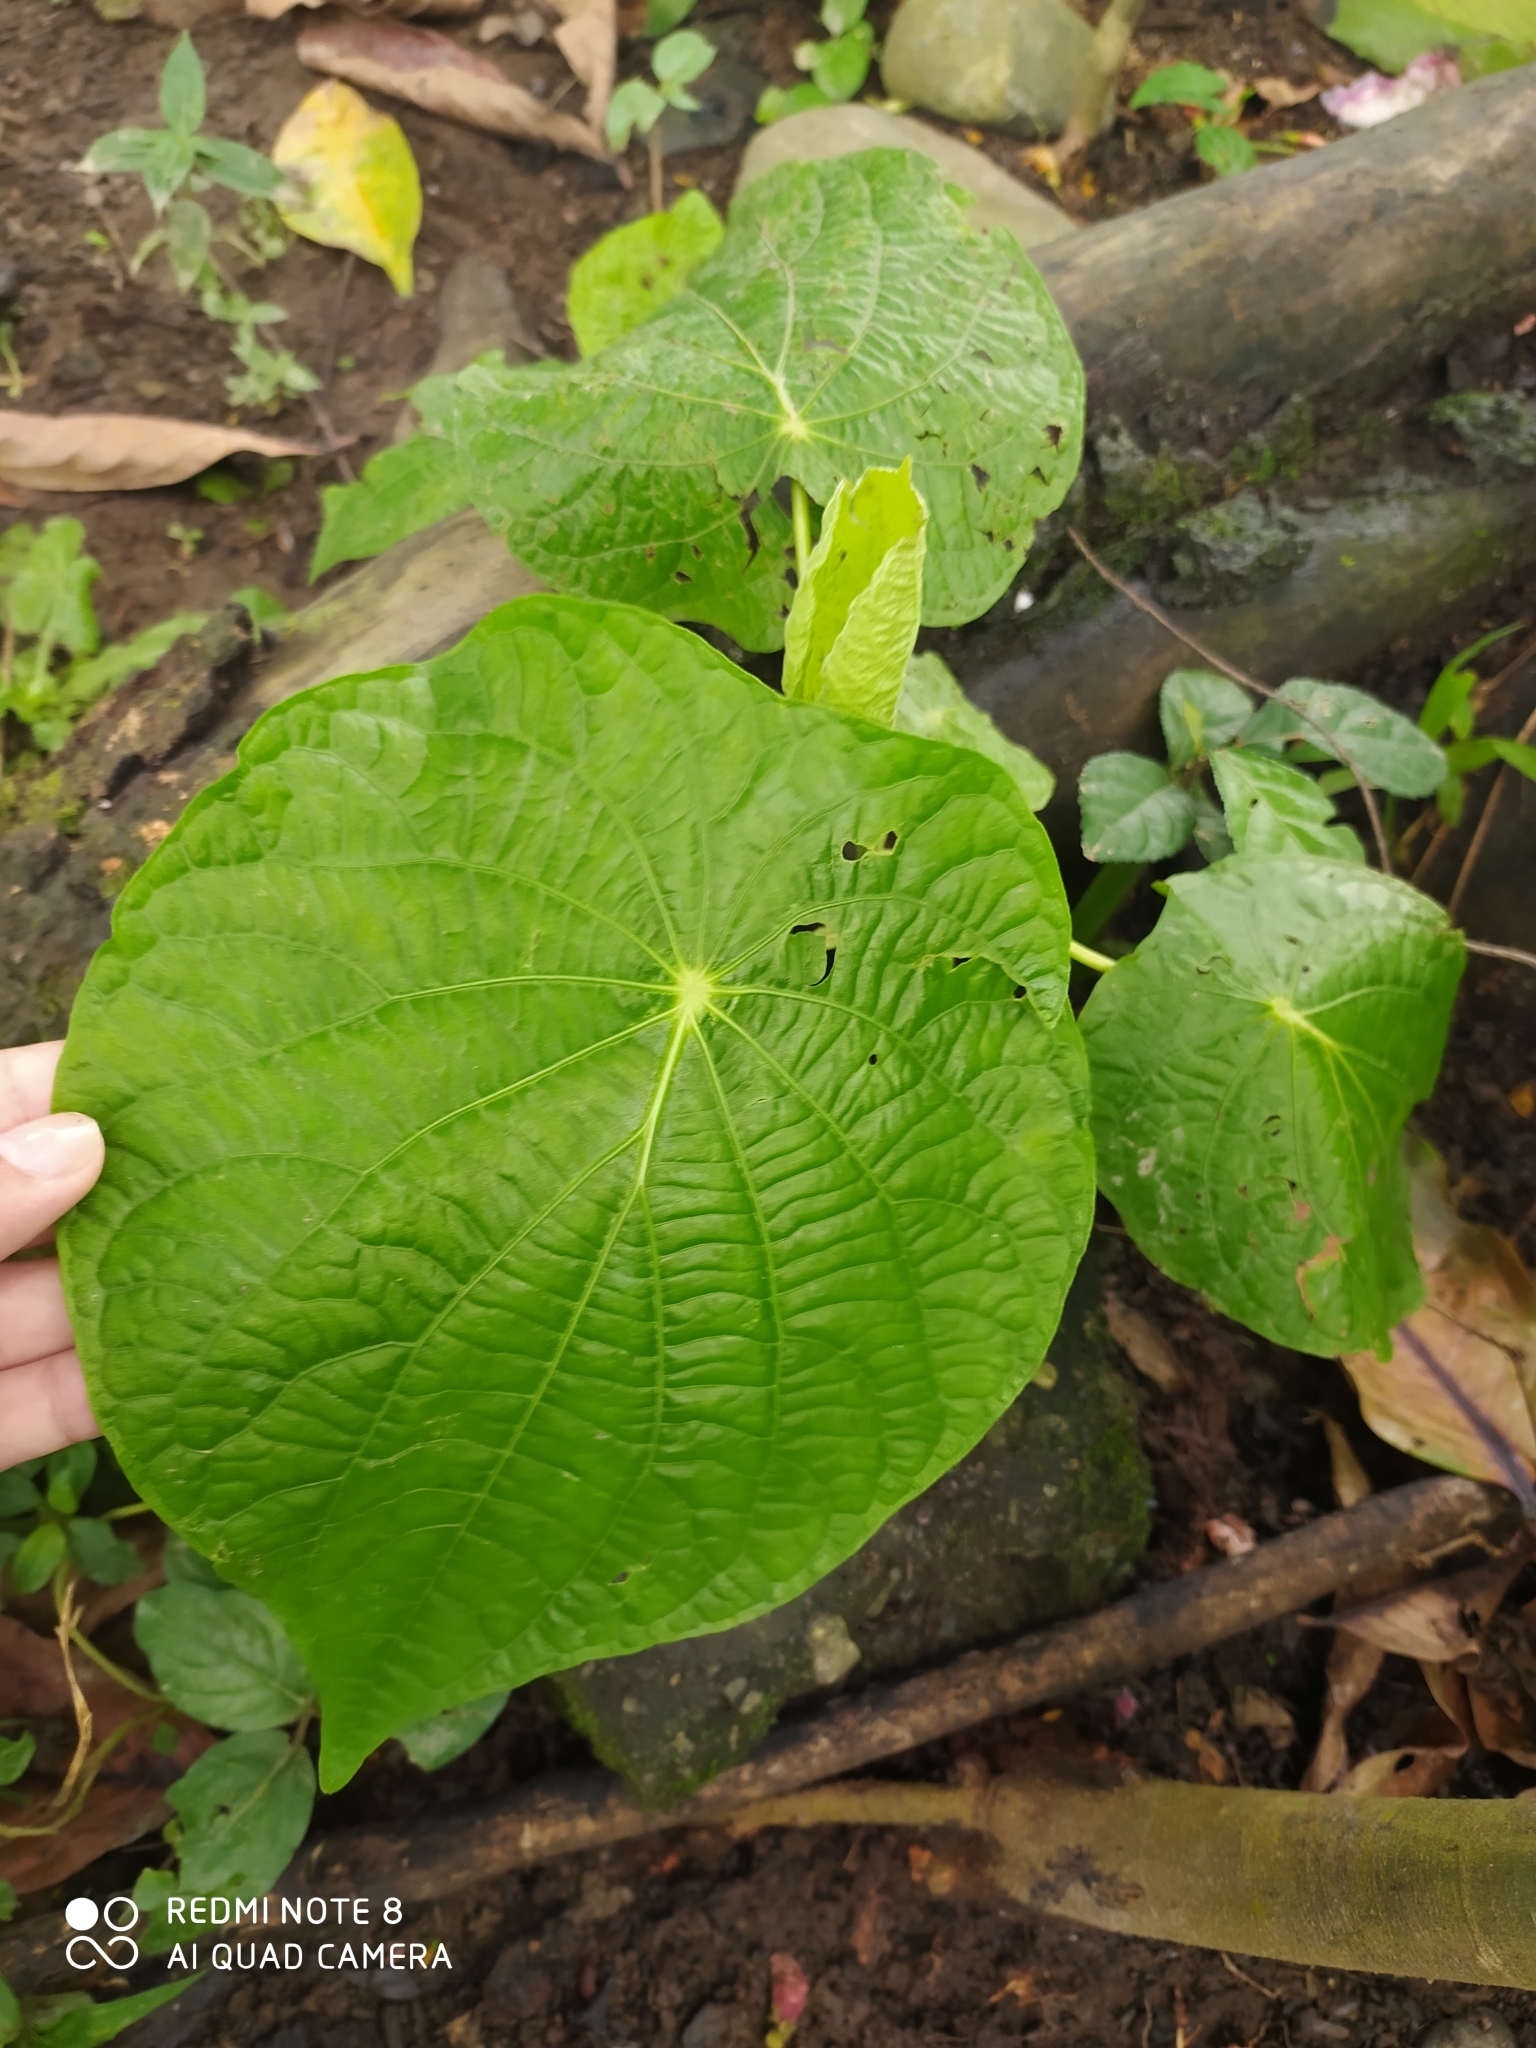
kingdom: Plantae
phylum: Tracheophyta
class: Magnoliopsida
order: Piperales
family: Piperaceae
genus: Piper
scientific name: Piper peltatum
